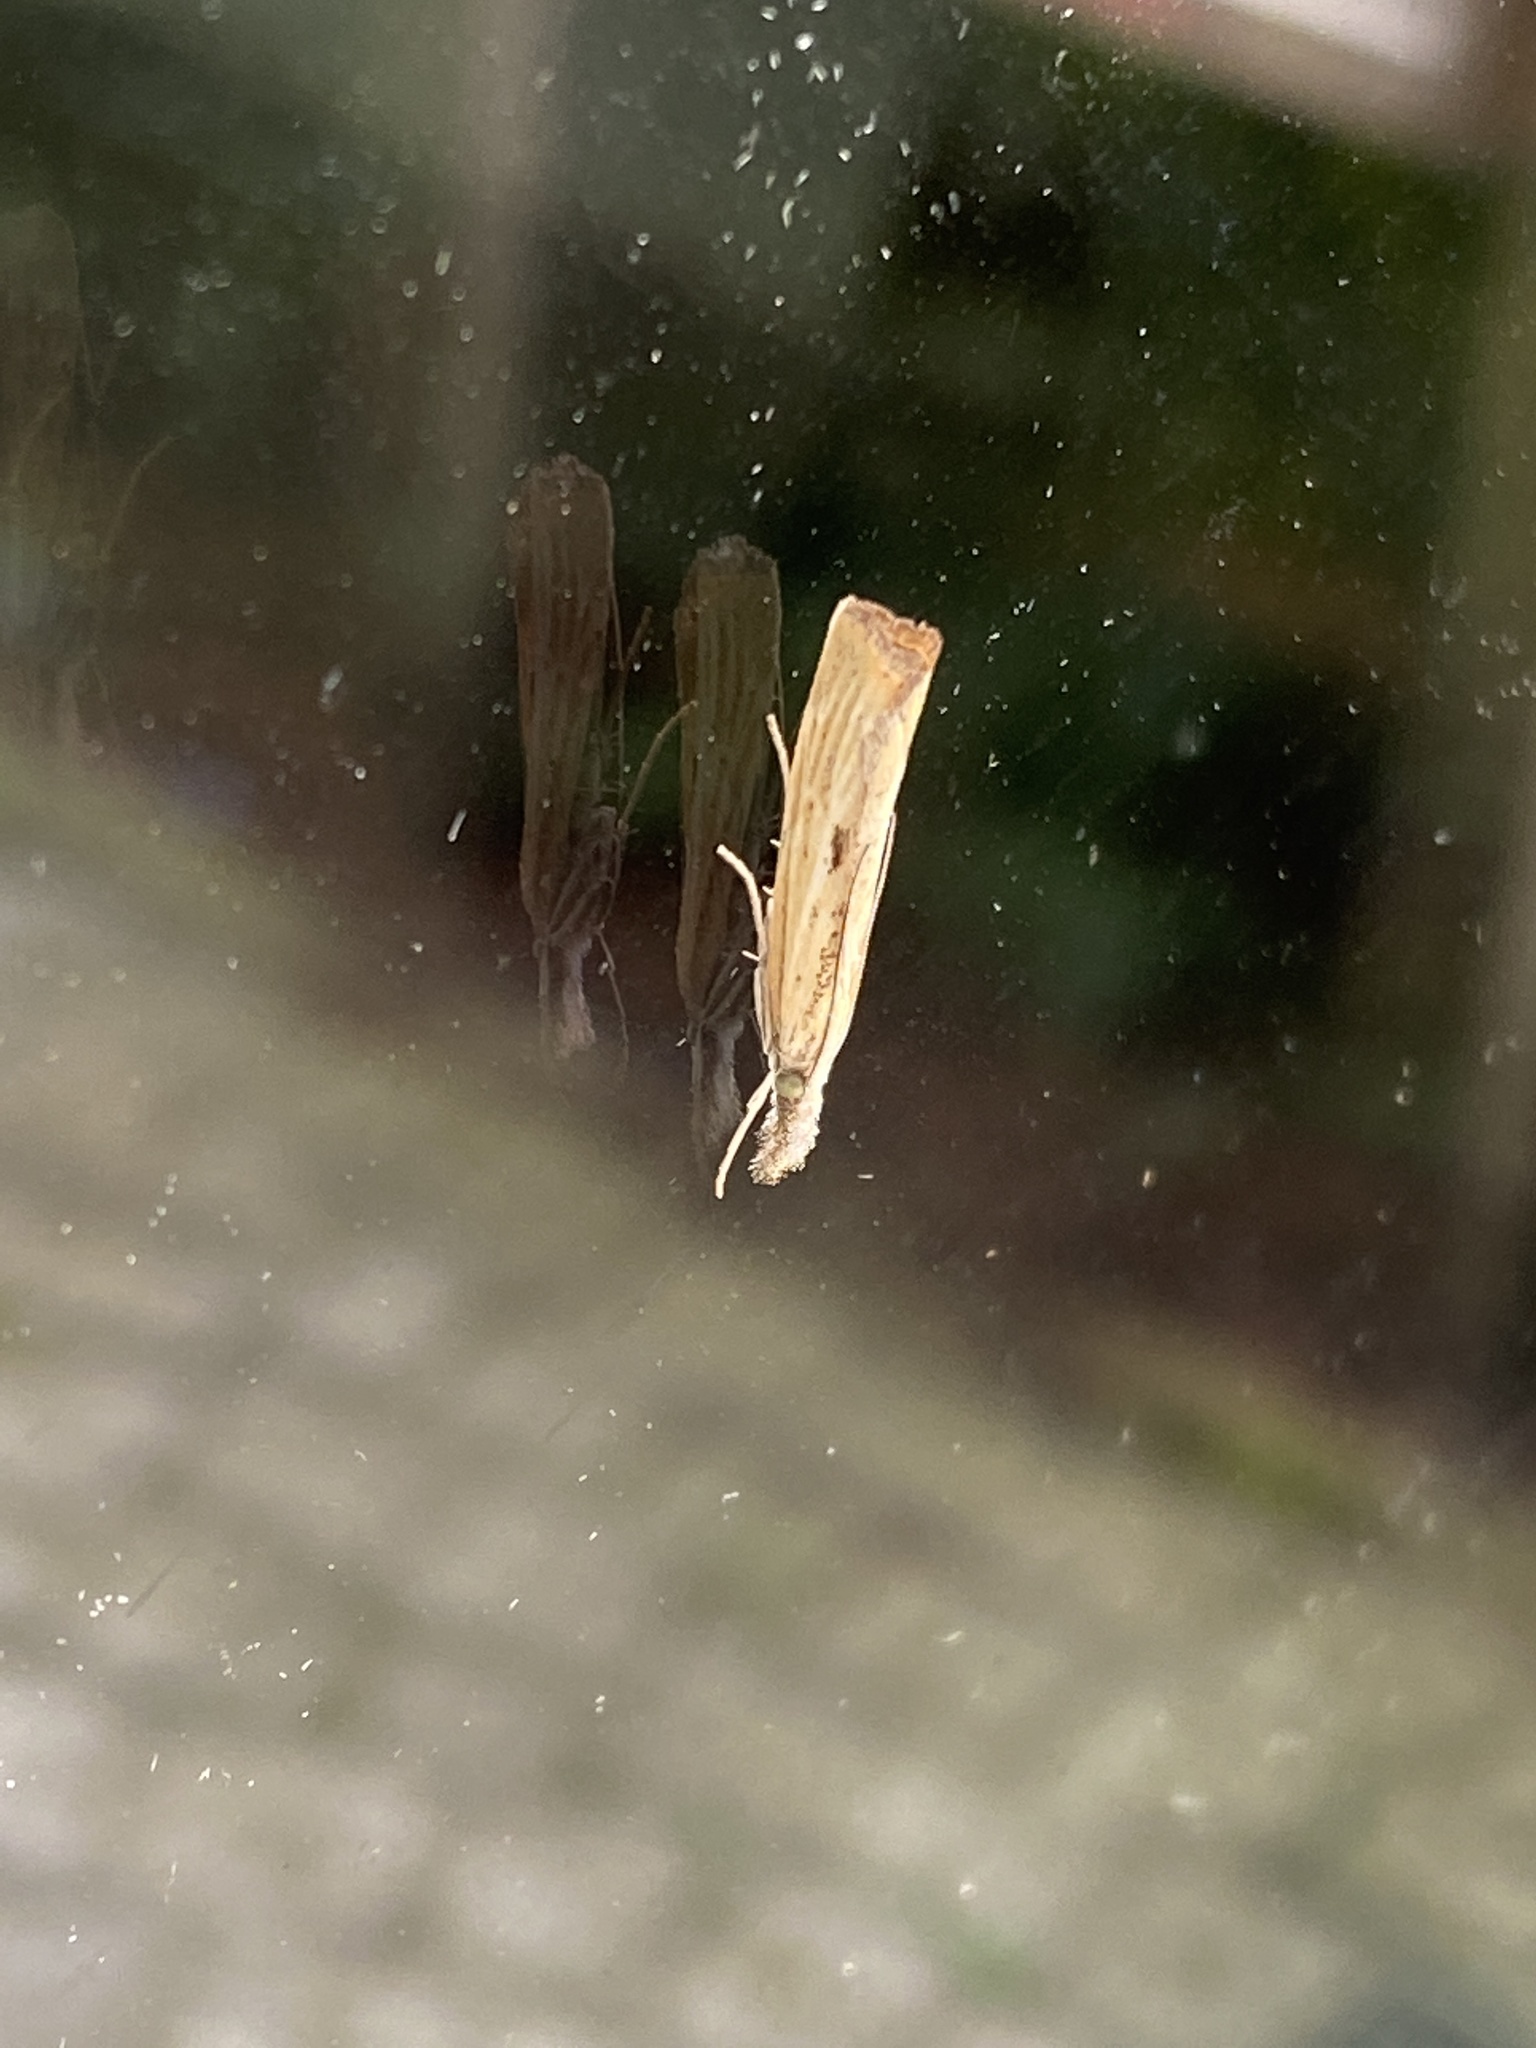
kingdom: Animalia
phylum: Arthropoda
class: Insecta
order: Lepidoptera
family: Crambidae
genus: Agriphila
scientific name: Agriphila inquinatella
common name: Barred grass-veneer
